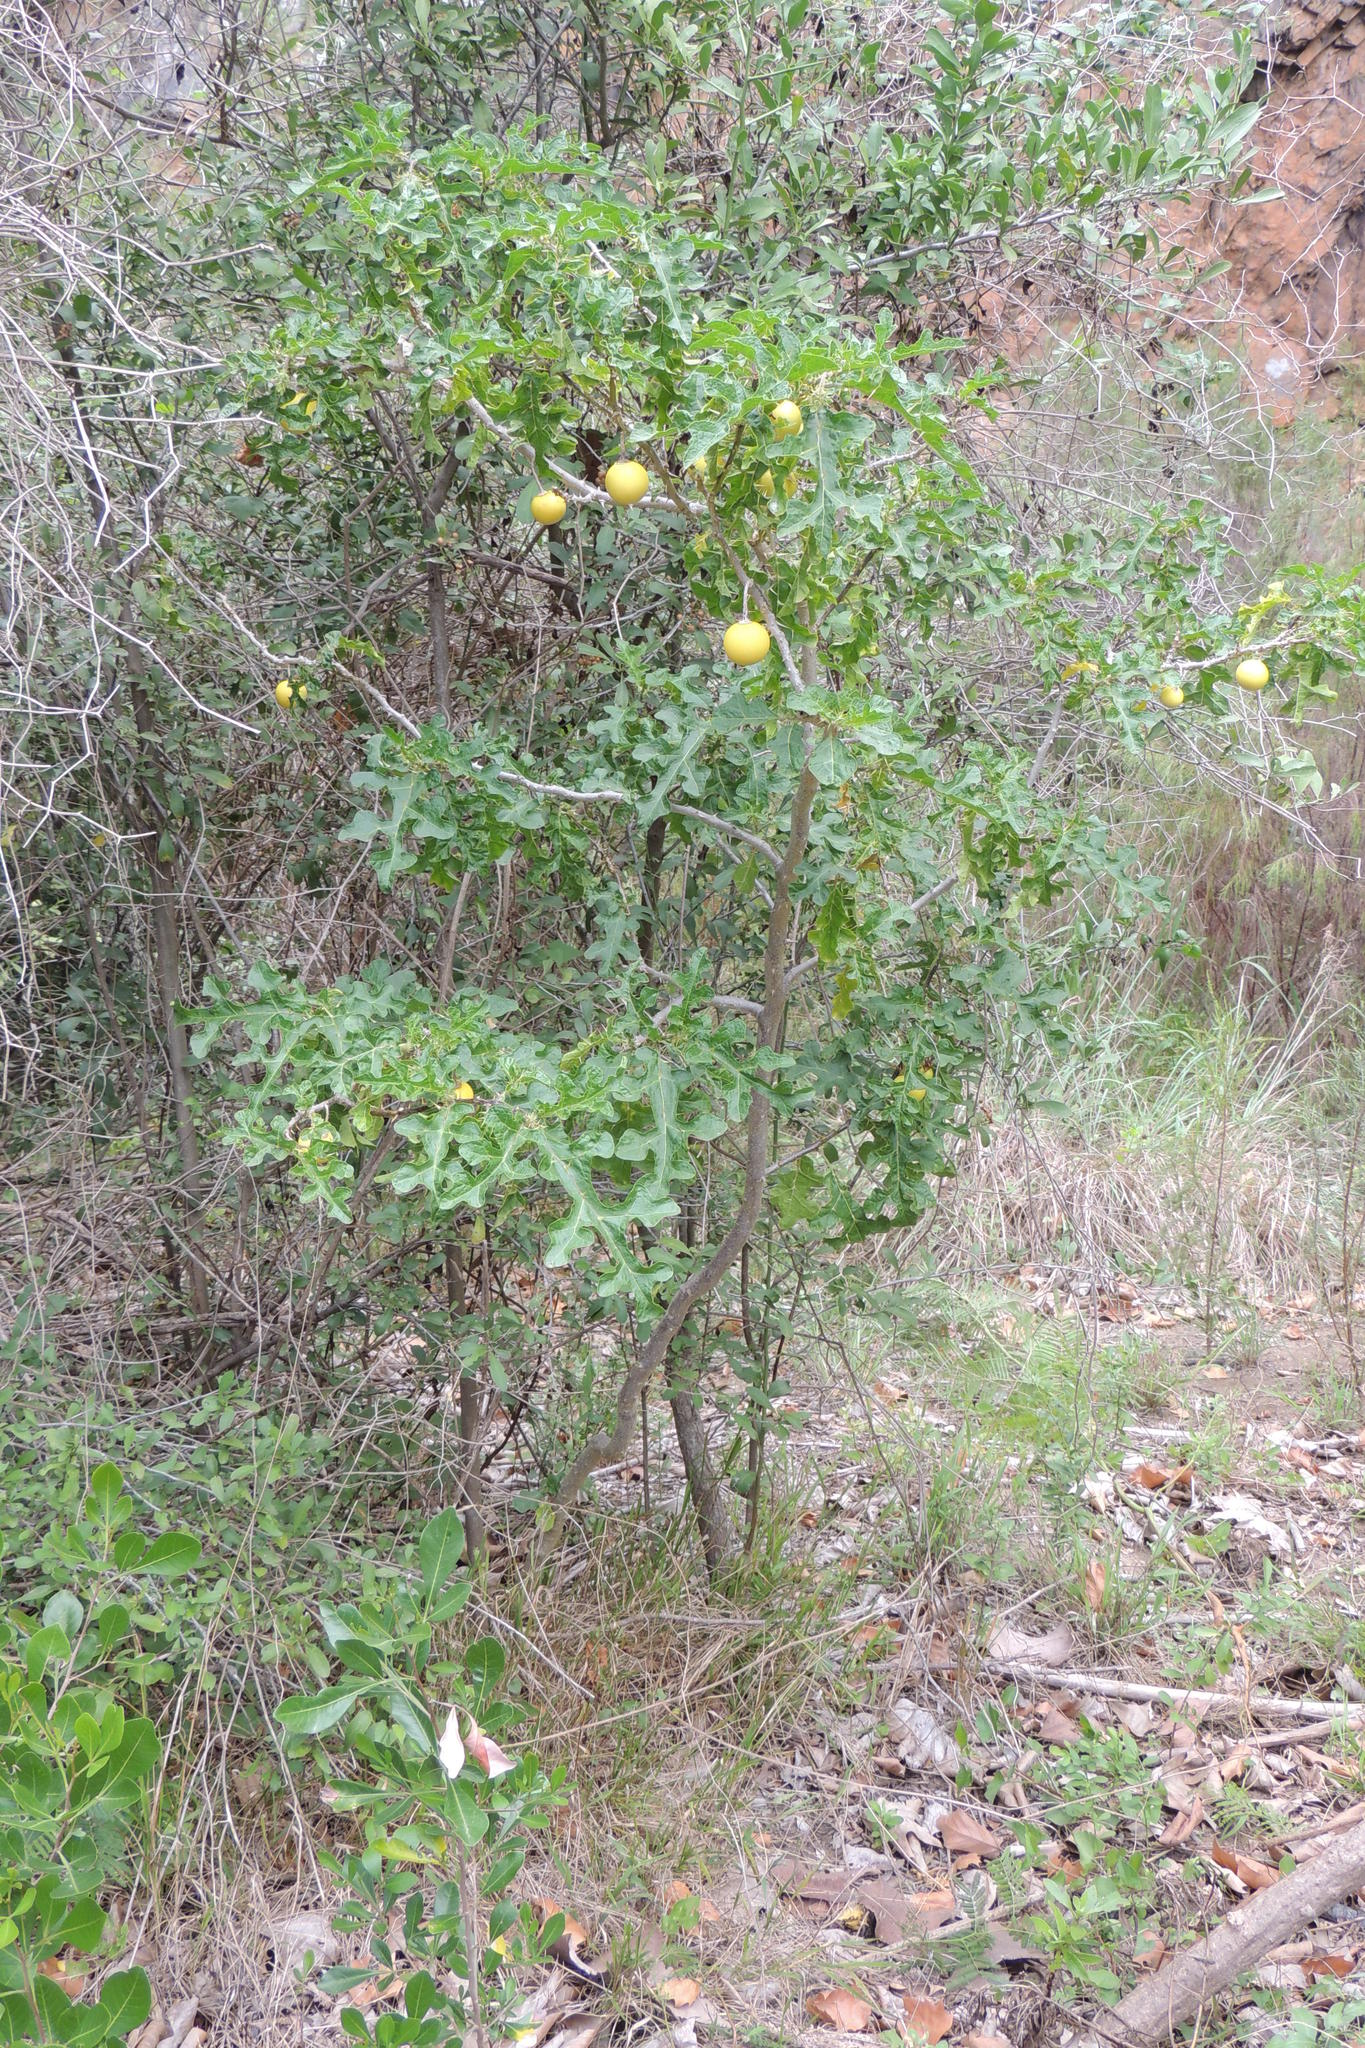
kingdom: Plantae
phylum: Tracheophyta
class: Magnoliopsida
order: Solanales
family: Solanaceae
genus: Solanum
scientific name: Solanum linnaeanum
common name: Nightshade
